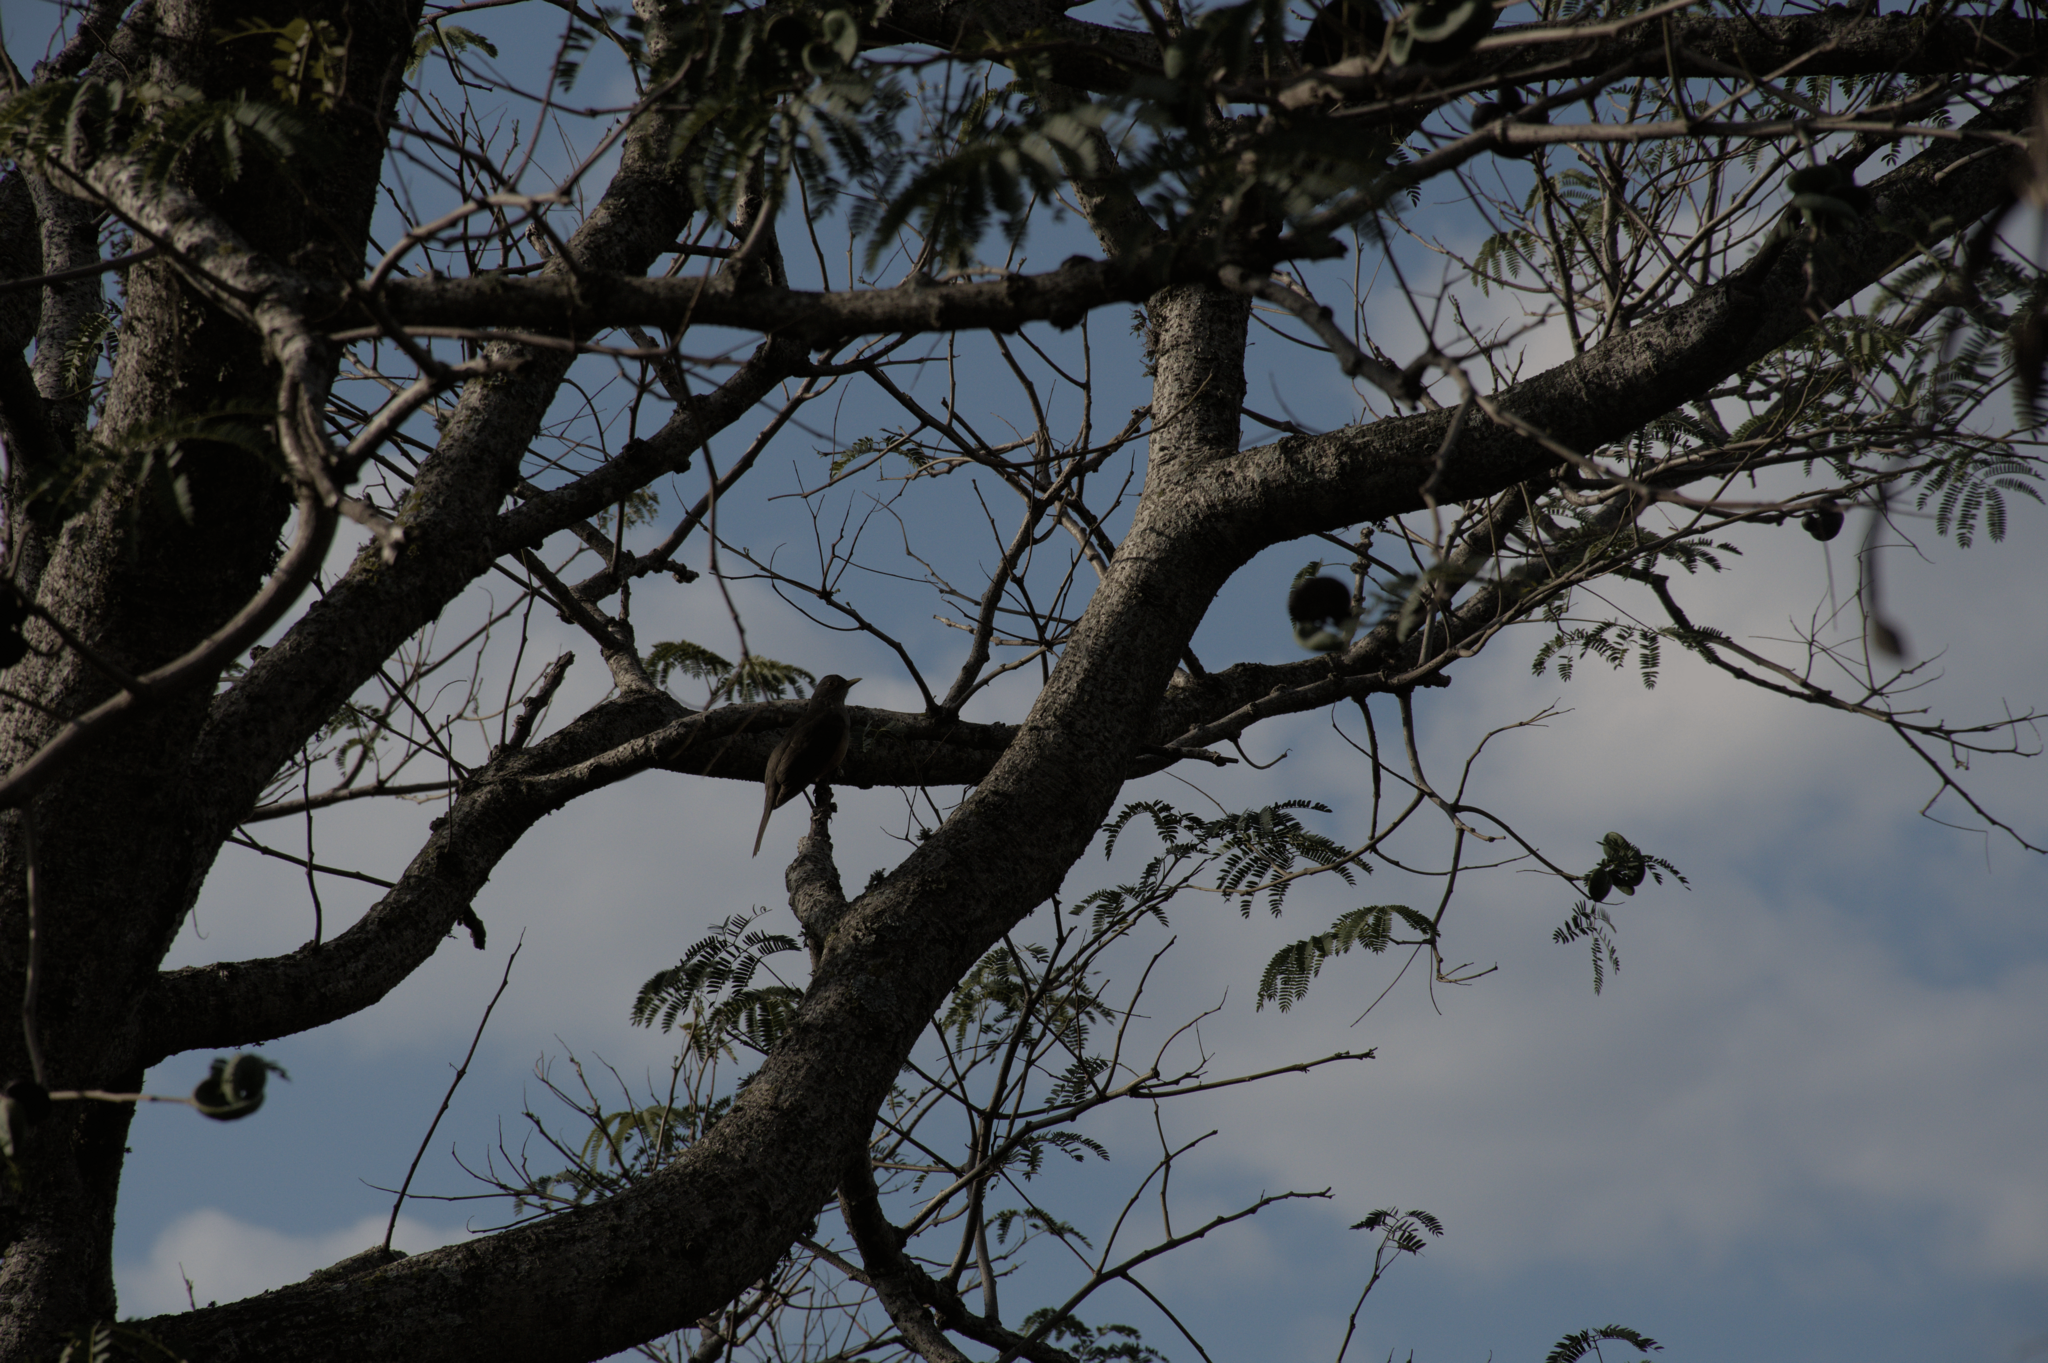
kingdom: Animalia
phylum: Chordata
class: Aves
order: Passeriformes
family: Turdidae
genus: Turdus
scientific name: Turdus rufiventris
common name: Rufous-bellied thrush
